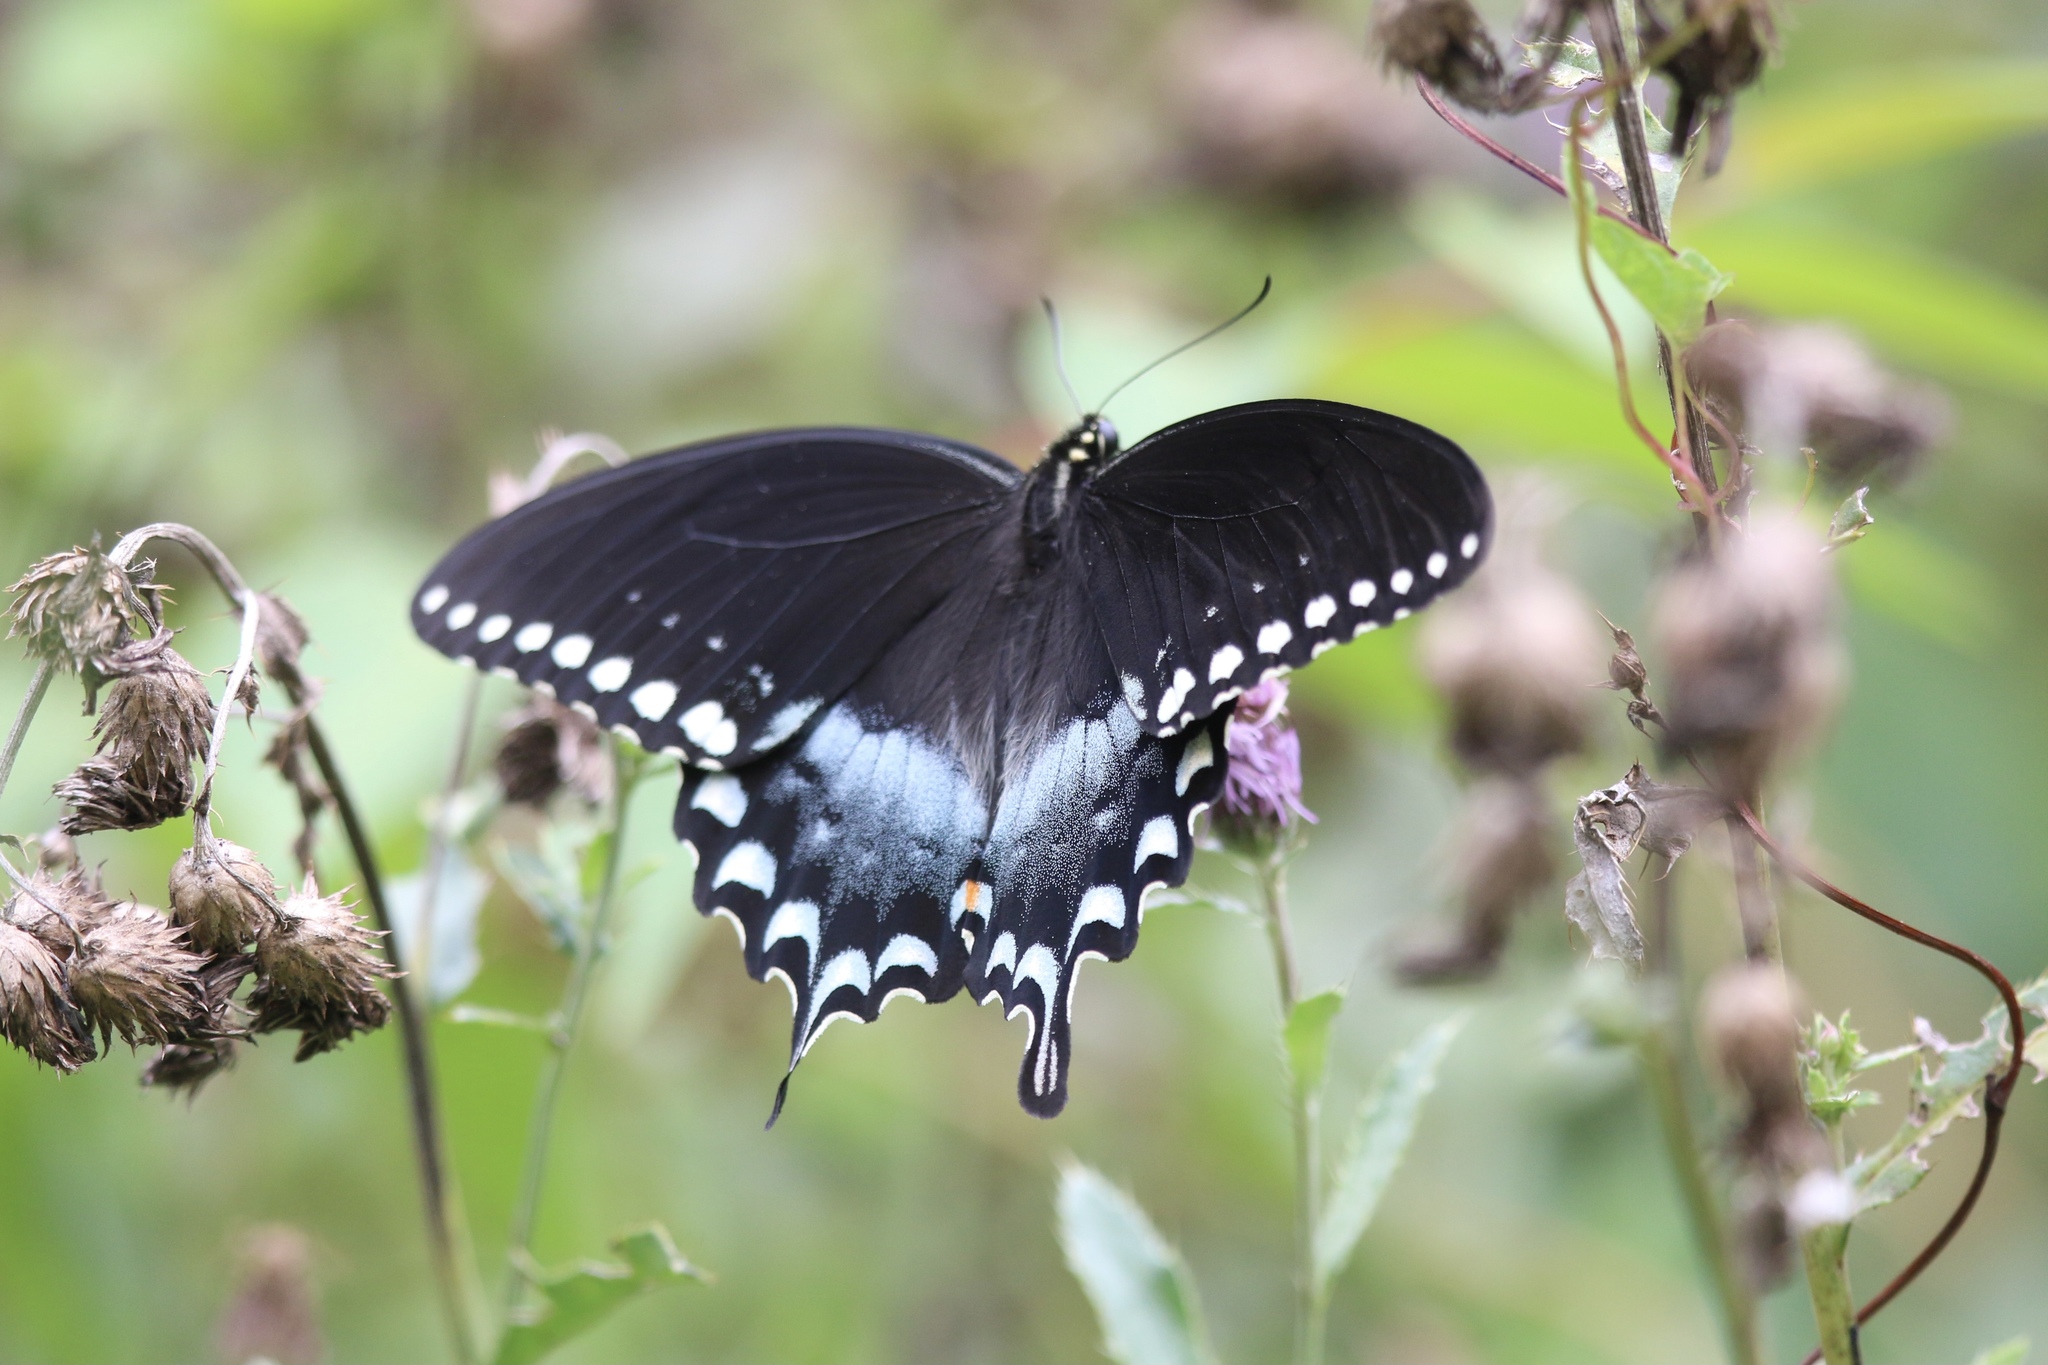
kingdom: Animalia
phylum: Arthropoda
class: Insecta
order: Lepidoptera
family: Papilionidae
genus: Papilio
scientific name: Papilio troilus
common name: Spicebush swallowtail
